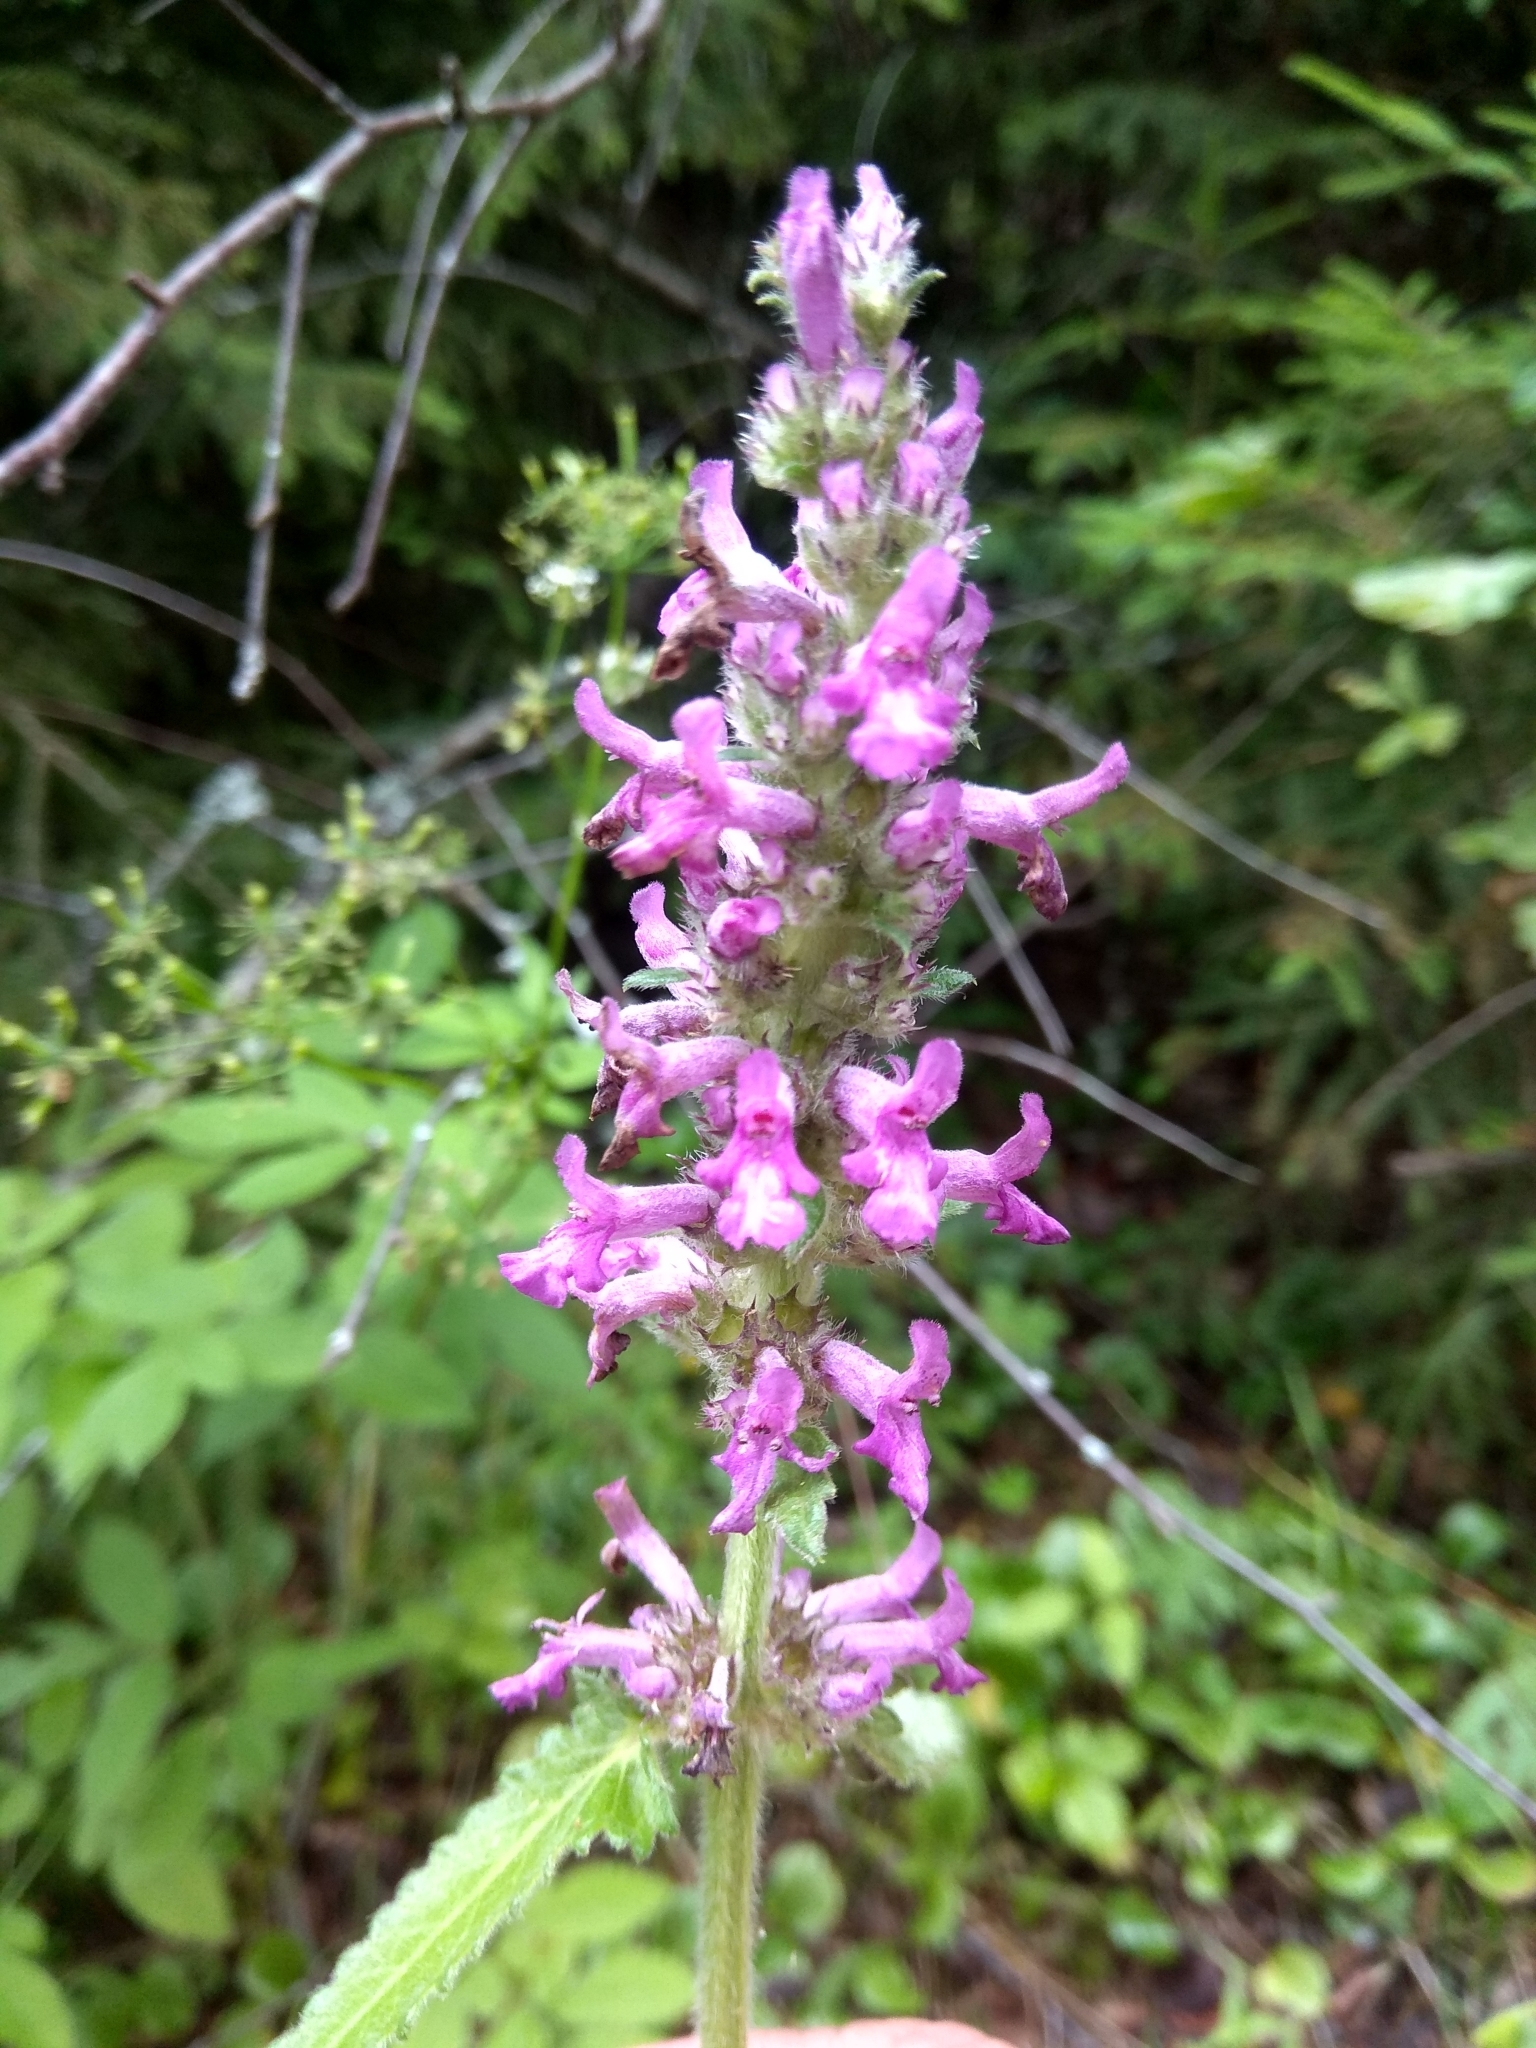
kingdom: Plantae
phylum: Tracheophyta
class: Magnoliopsida
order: Lamiales
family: Lamiaceae
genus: Betonica
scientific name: Betonica officinalis
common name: Bishop's-wort
